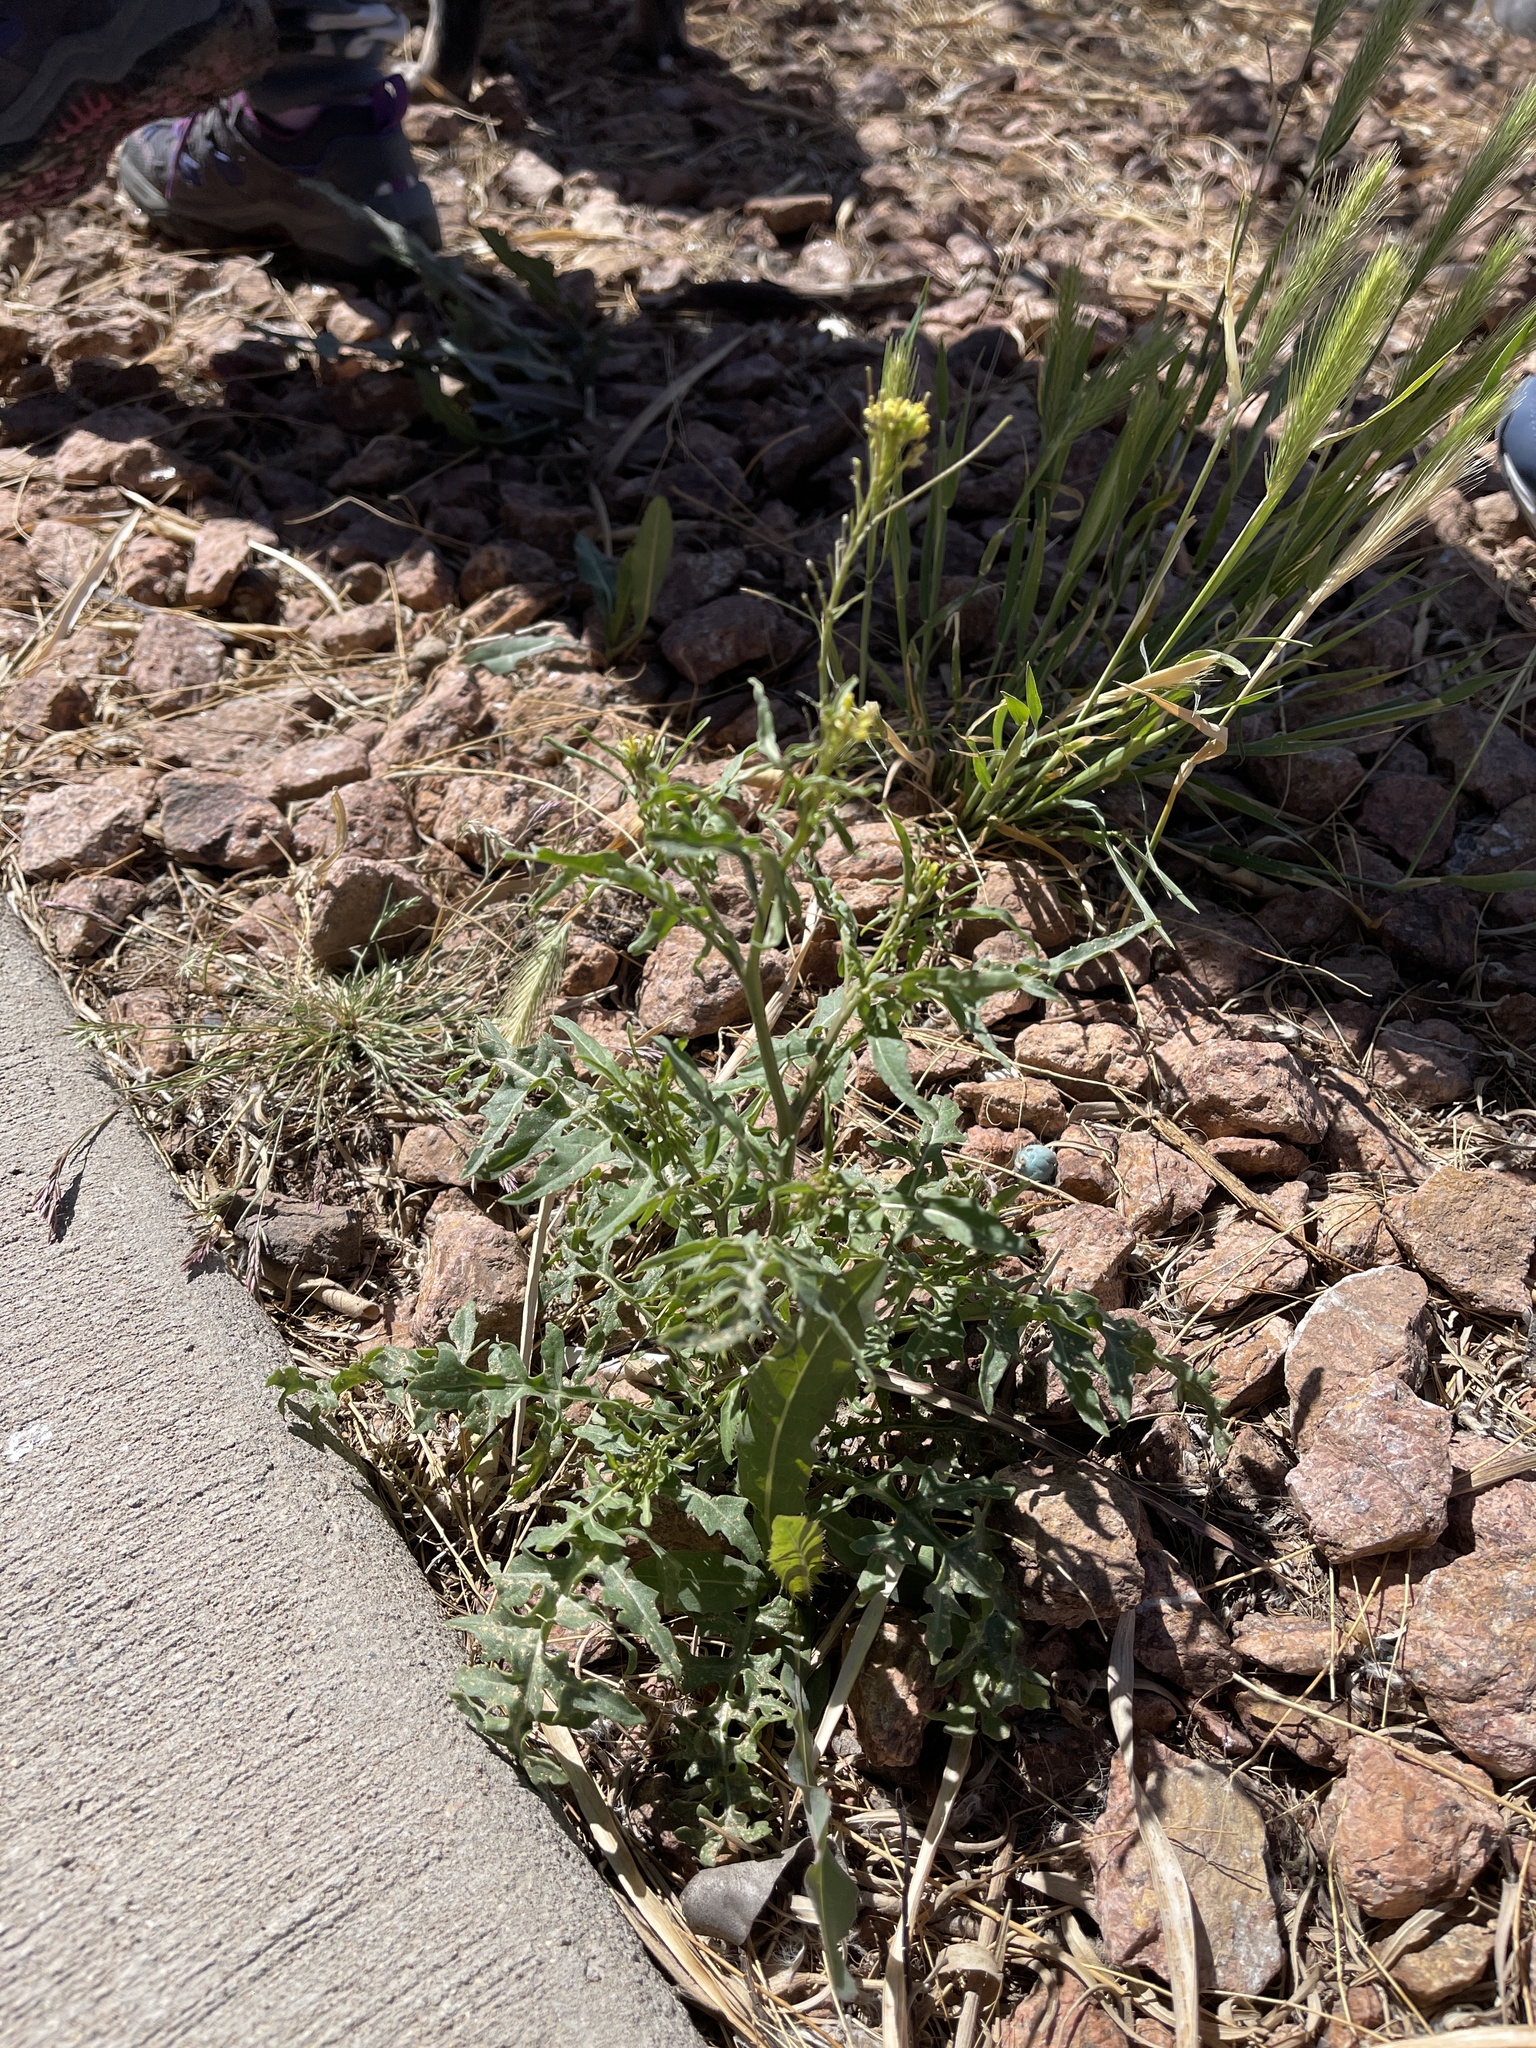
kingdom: Plantae
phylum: Tracheophyta
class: Magnoliopsida
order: Brassicales
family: Brassicaceae
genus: Sisymbrium
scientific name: Sisymbrium irio
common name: London rocket
